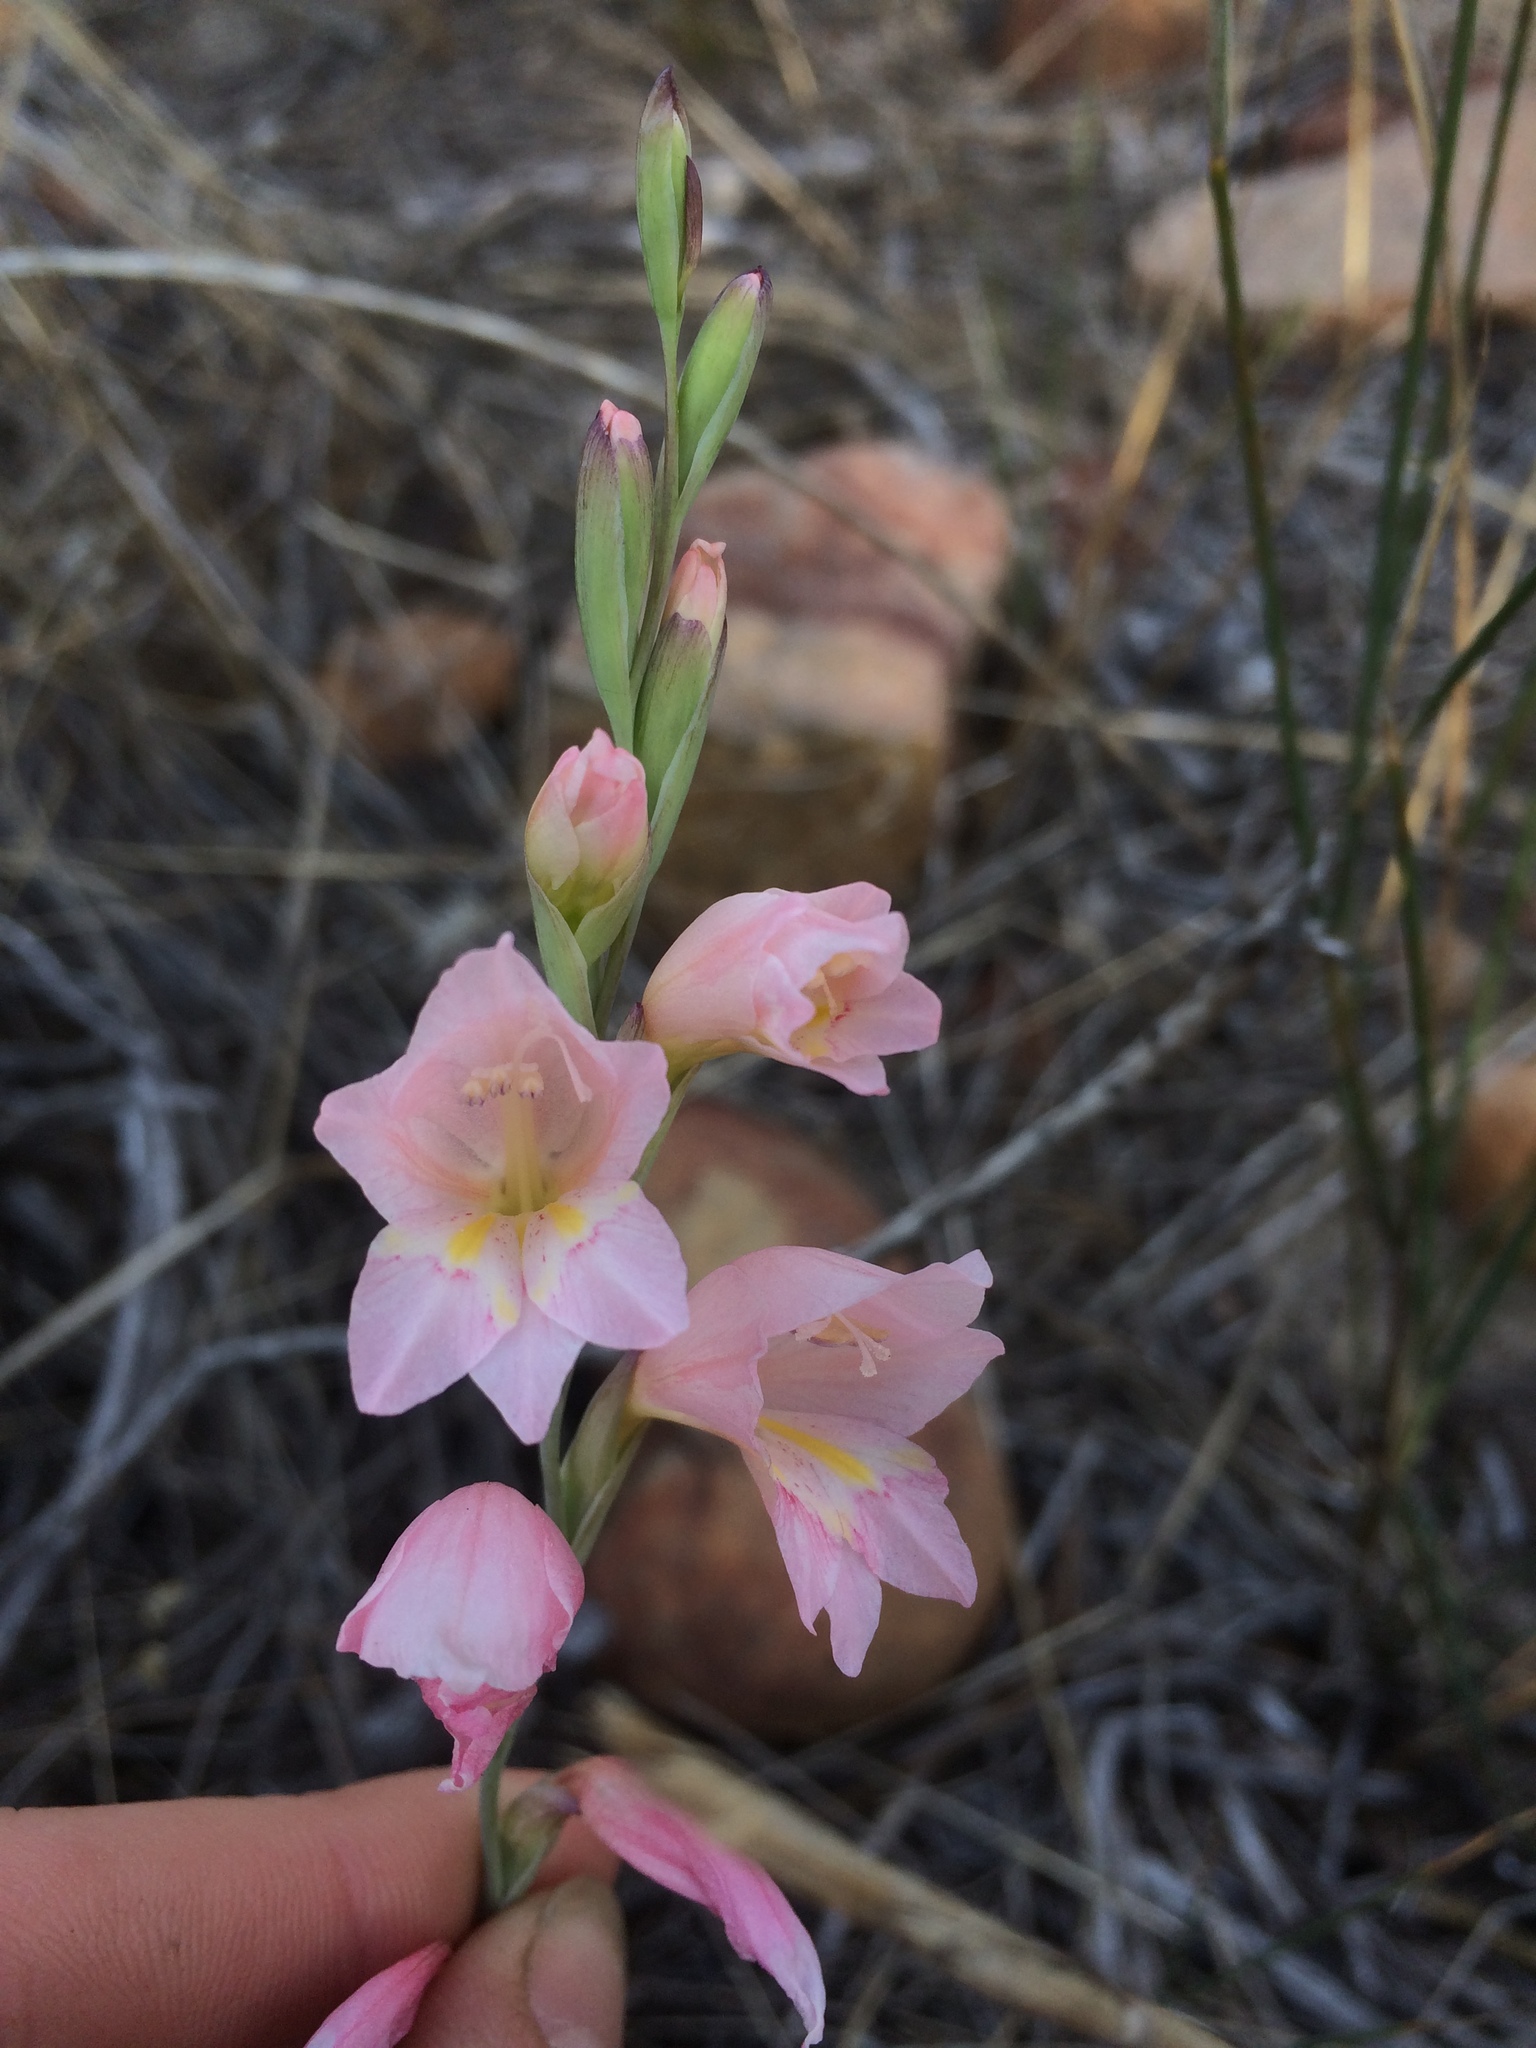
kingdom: Plantae
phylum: Tracheophyta
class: Liliopsida
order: Asparagales
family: Iridaceae
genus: Gladiolus
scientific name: Gladiolus brevifolius
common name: March pypie
